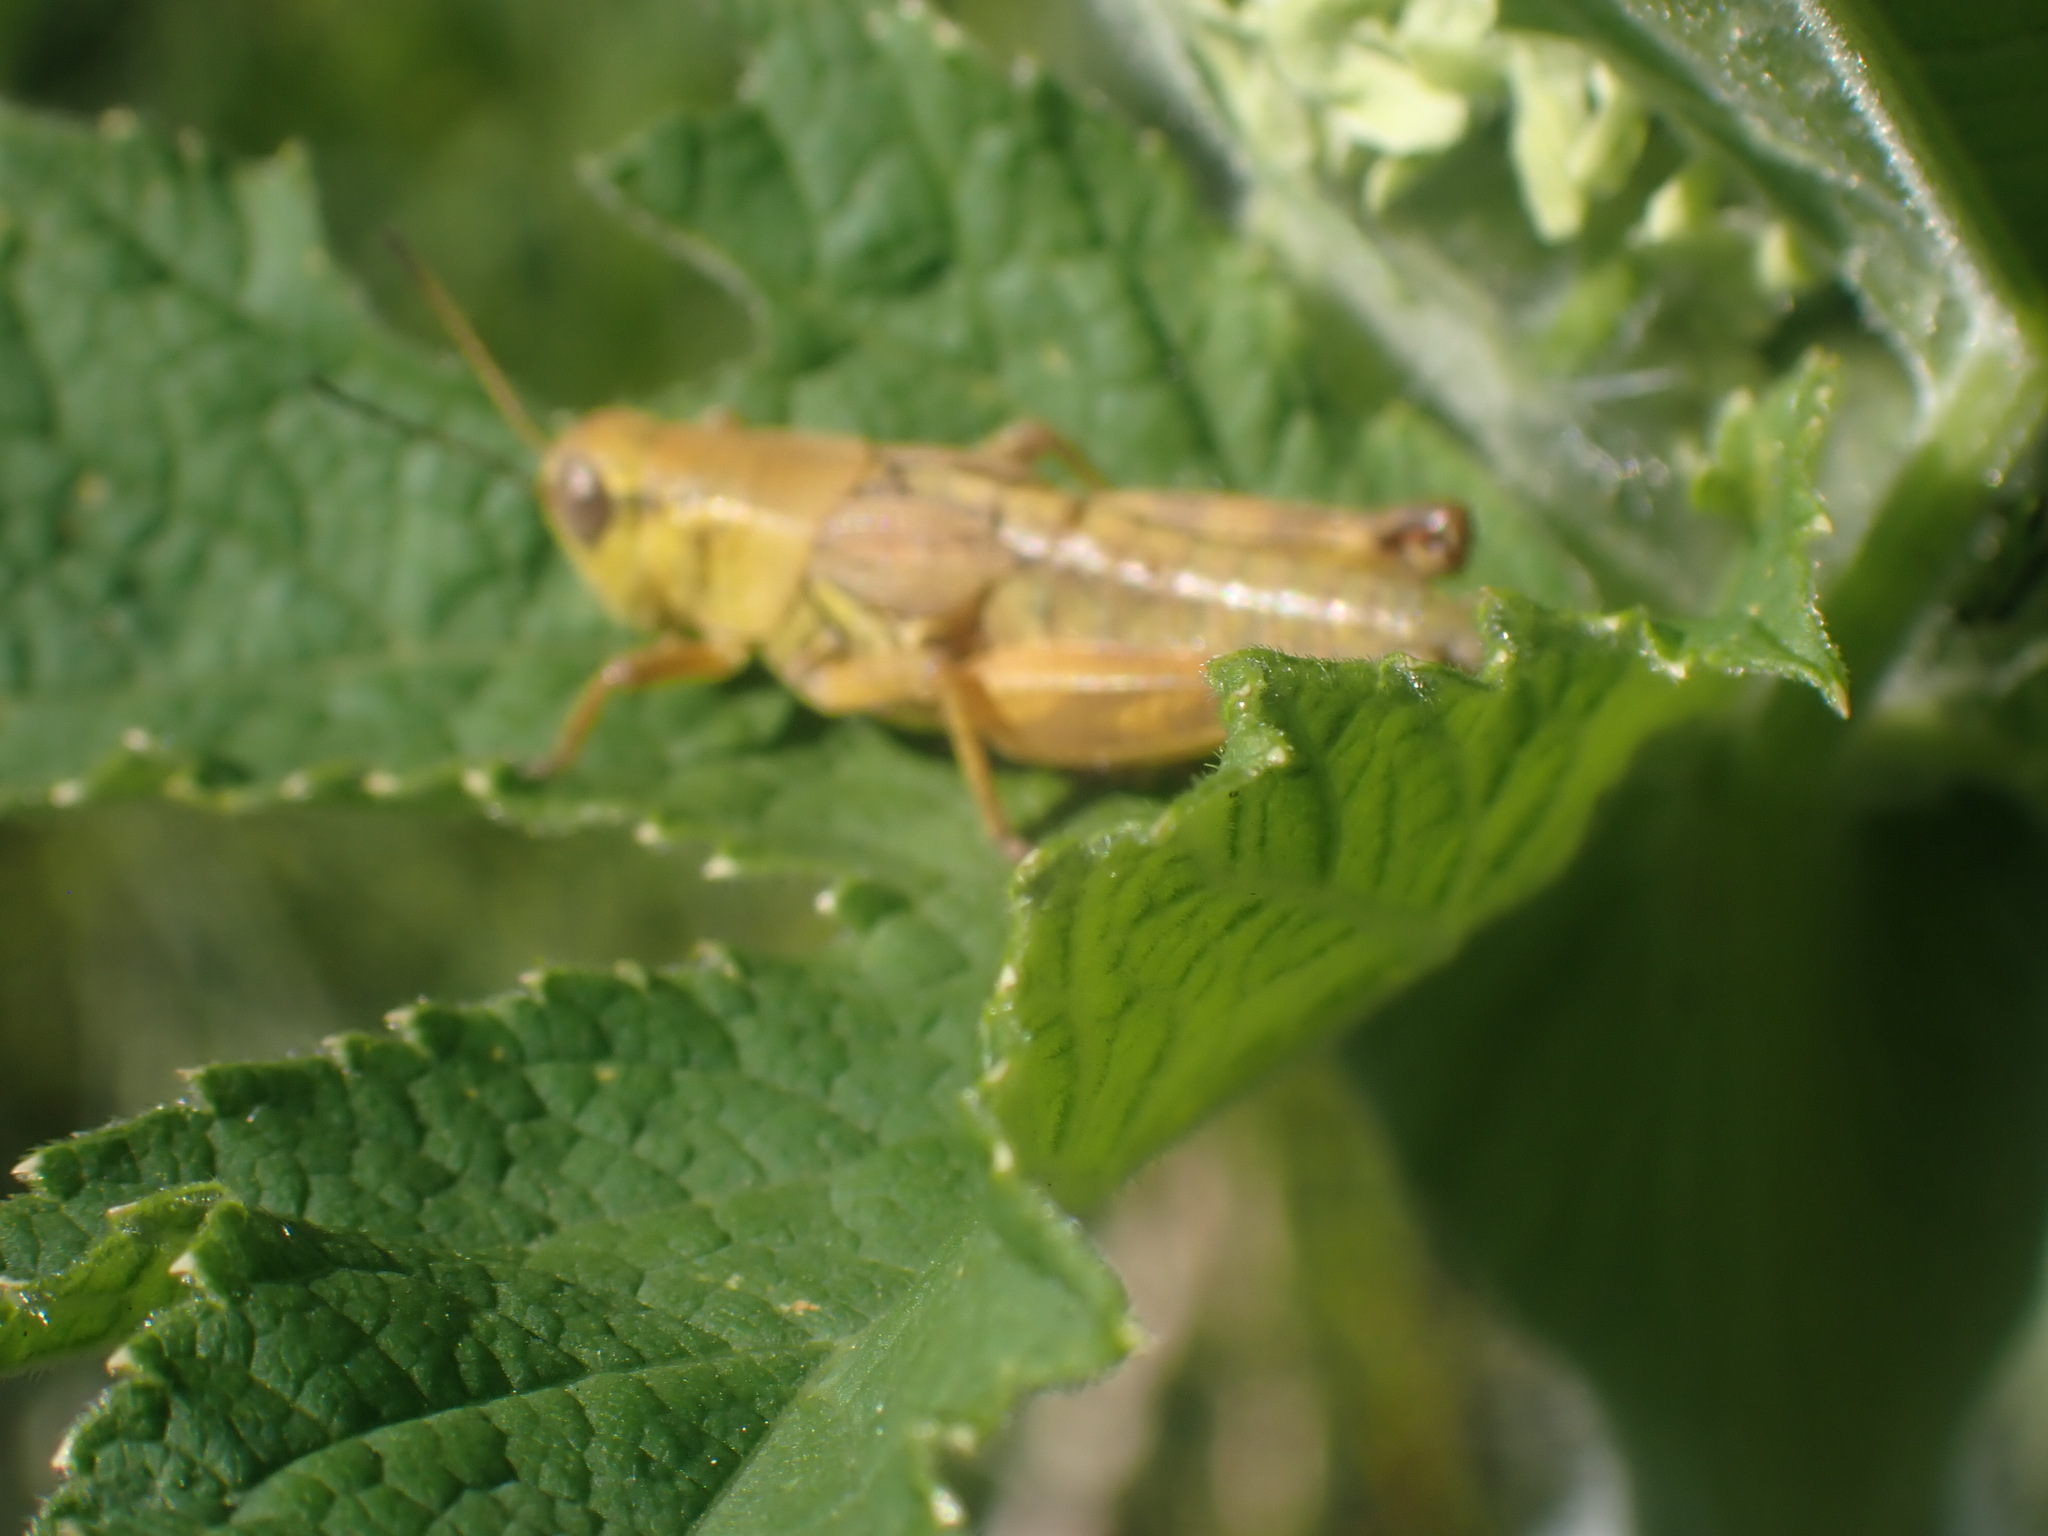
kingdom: Animalia
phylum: Arthropoda
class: Insecta
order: Orthoptera
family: Acrididae
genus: Melanoplus
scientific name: Melanoplus triangularis
